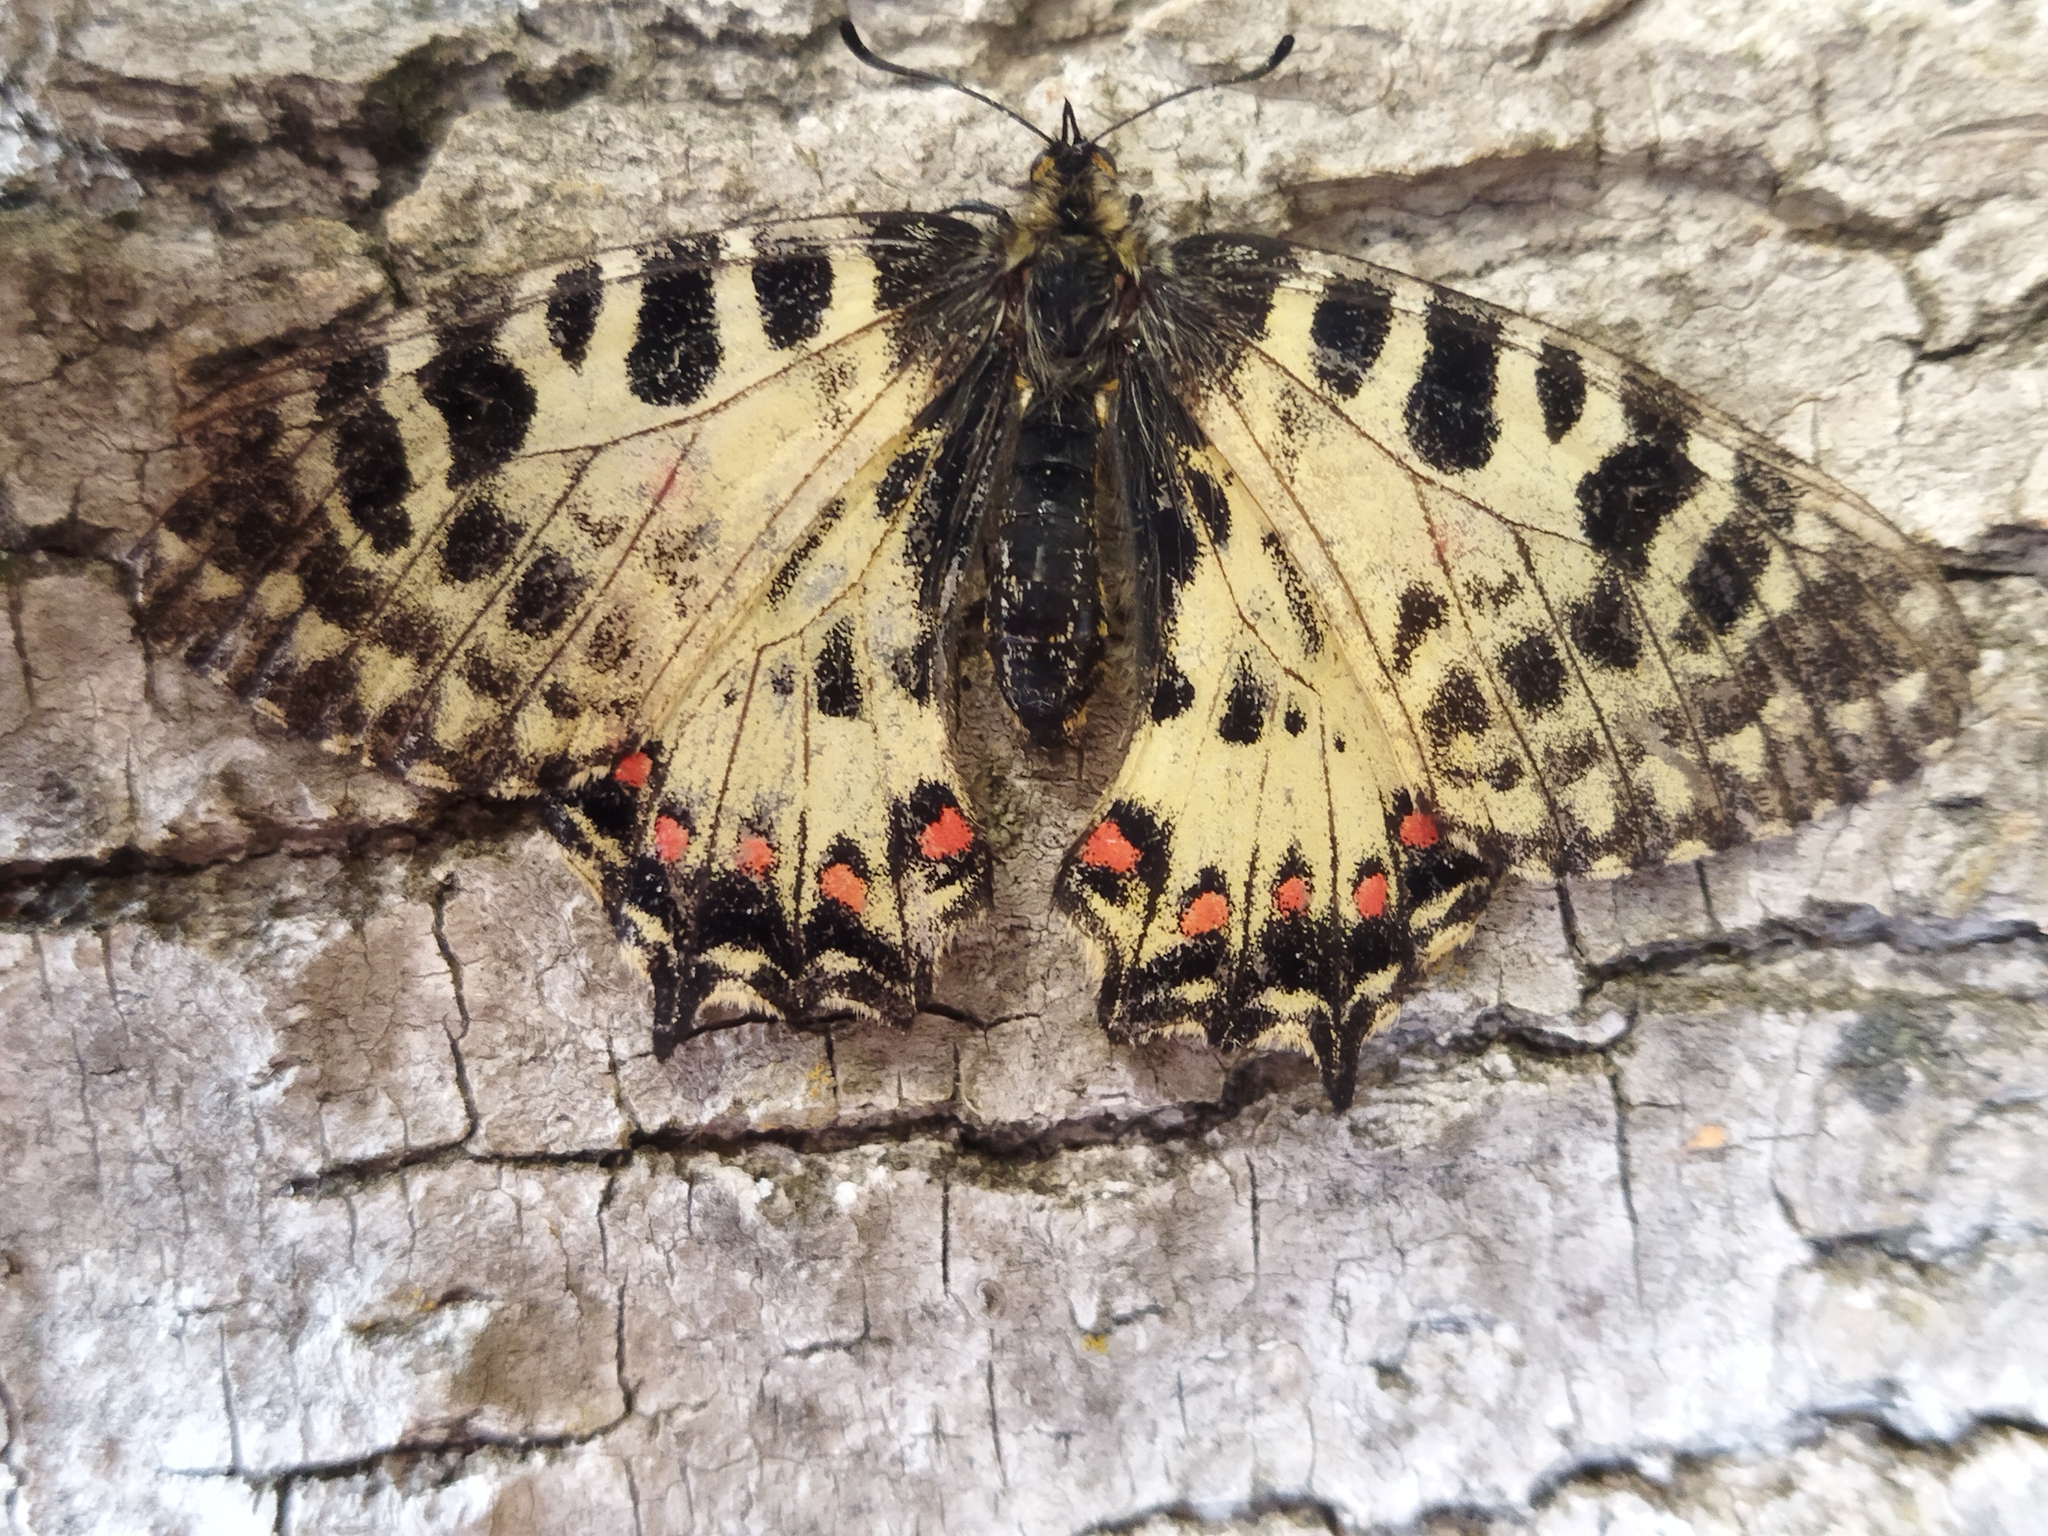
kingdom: Animalia
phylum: Arthropoda
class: Insecta
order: Lepidoptera
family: Papilionidae
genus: Zerynthia
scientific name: Zerynthia cerisy
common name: Eastern festoon
